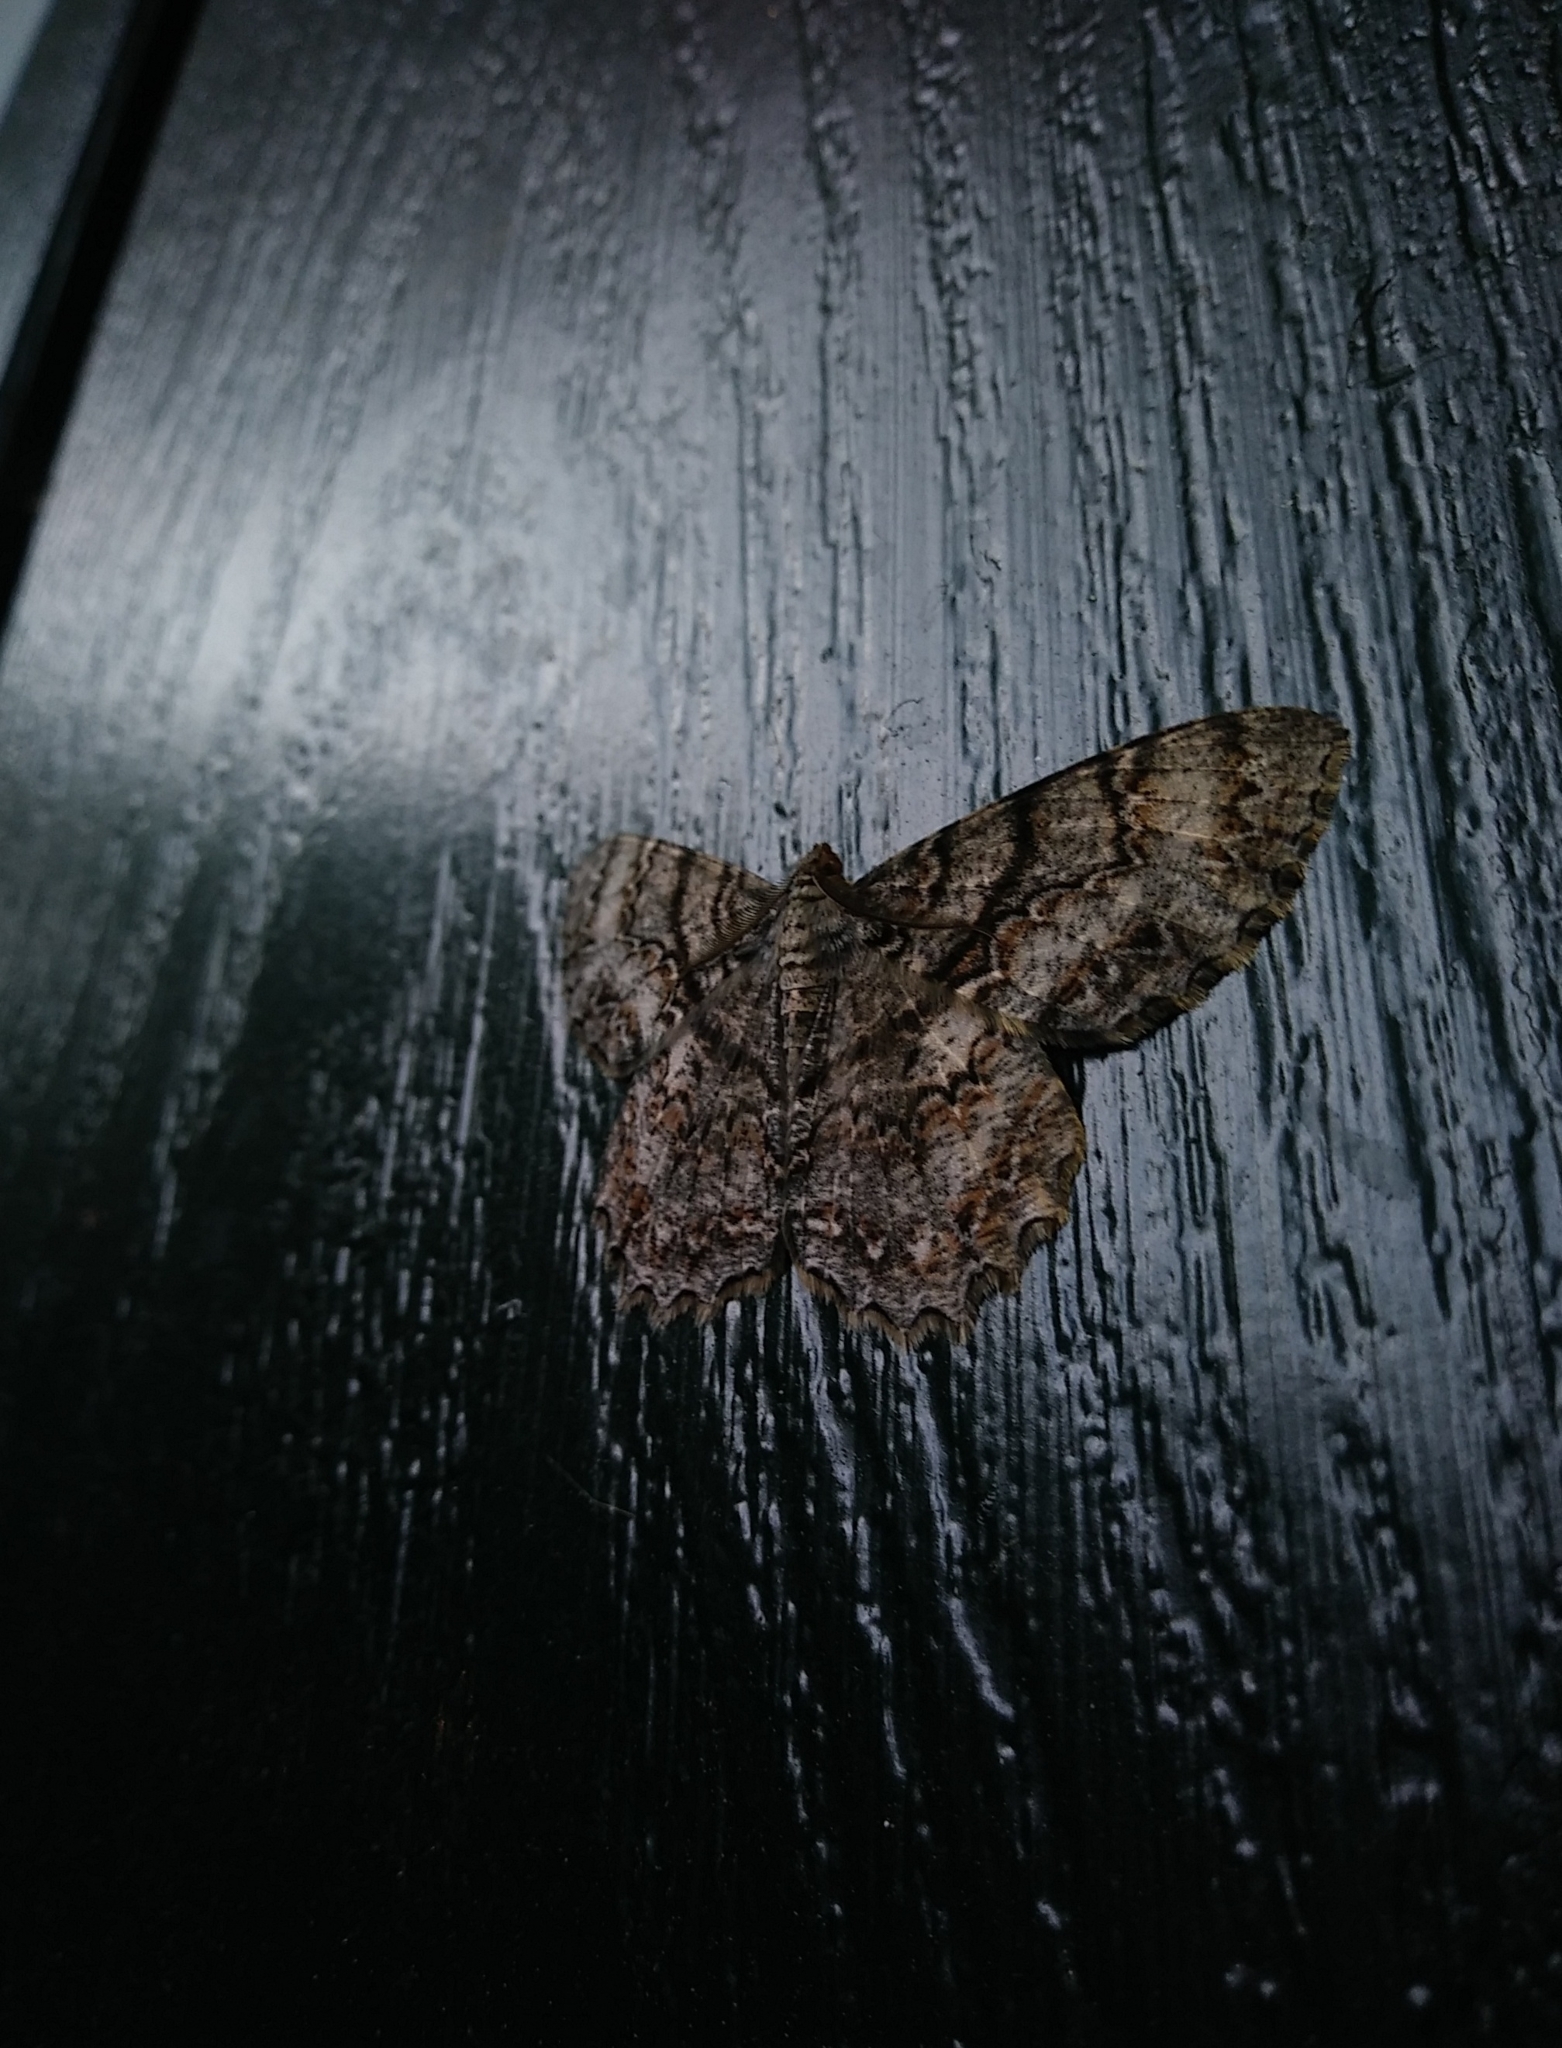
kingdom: Animalia
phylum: Arthropoda
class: Insecta
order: Lepidoptera
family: Geometridae
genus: Epimecis
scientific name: Epimecis hortaria
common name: Tulip-tree beauty
